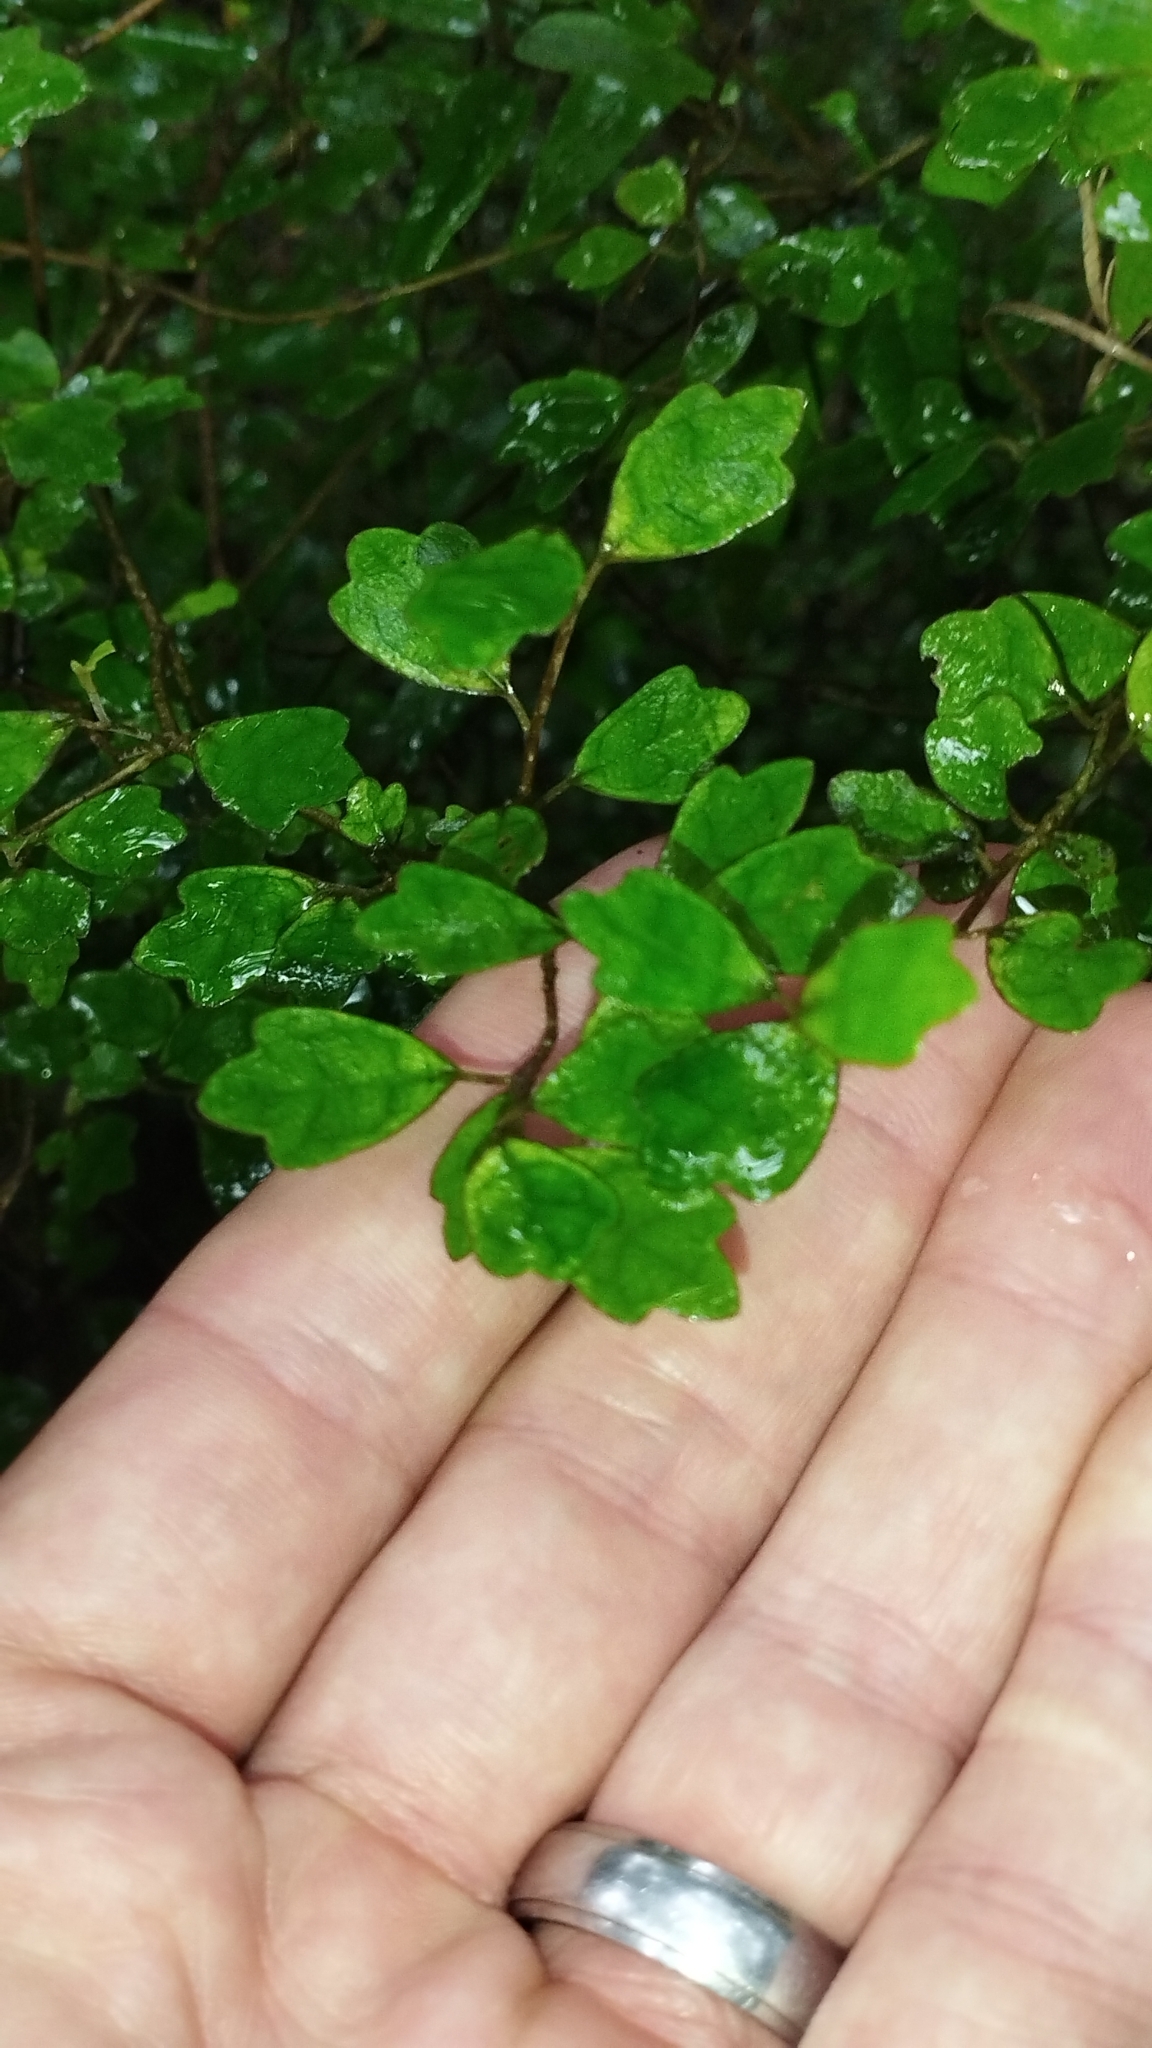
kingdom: Plantae
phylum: Tracheophyta
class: Magnoliopsida
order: Apiales
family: Pennantiaceae
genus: Pennantia
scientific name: Pennantia corymbosa
